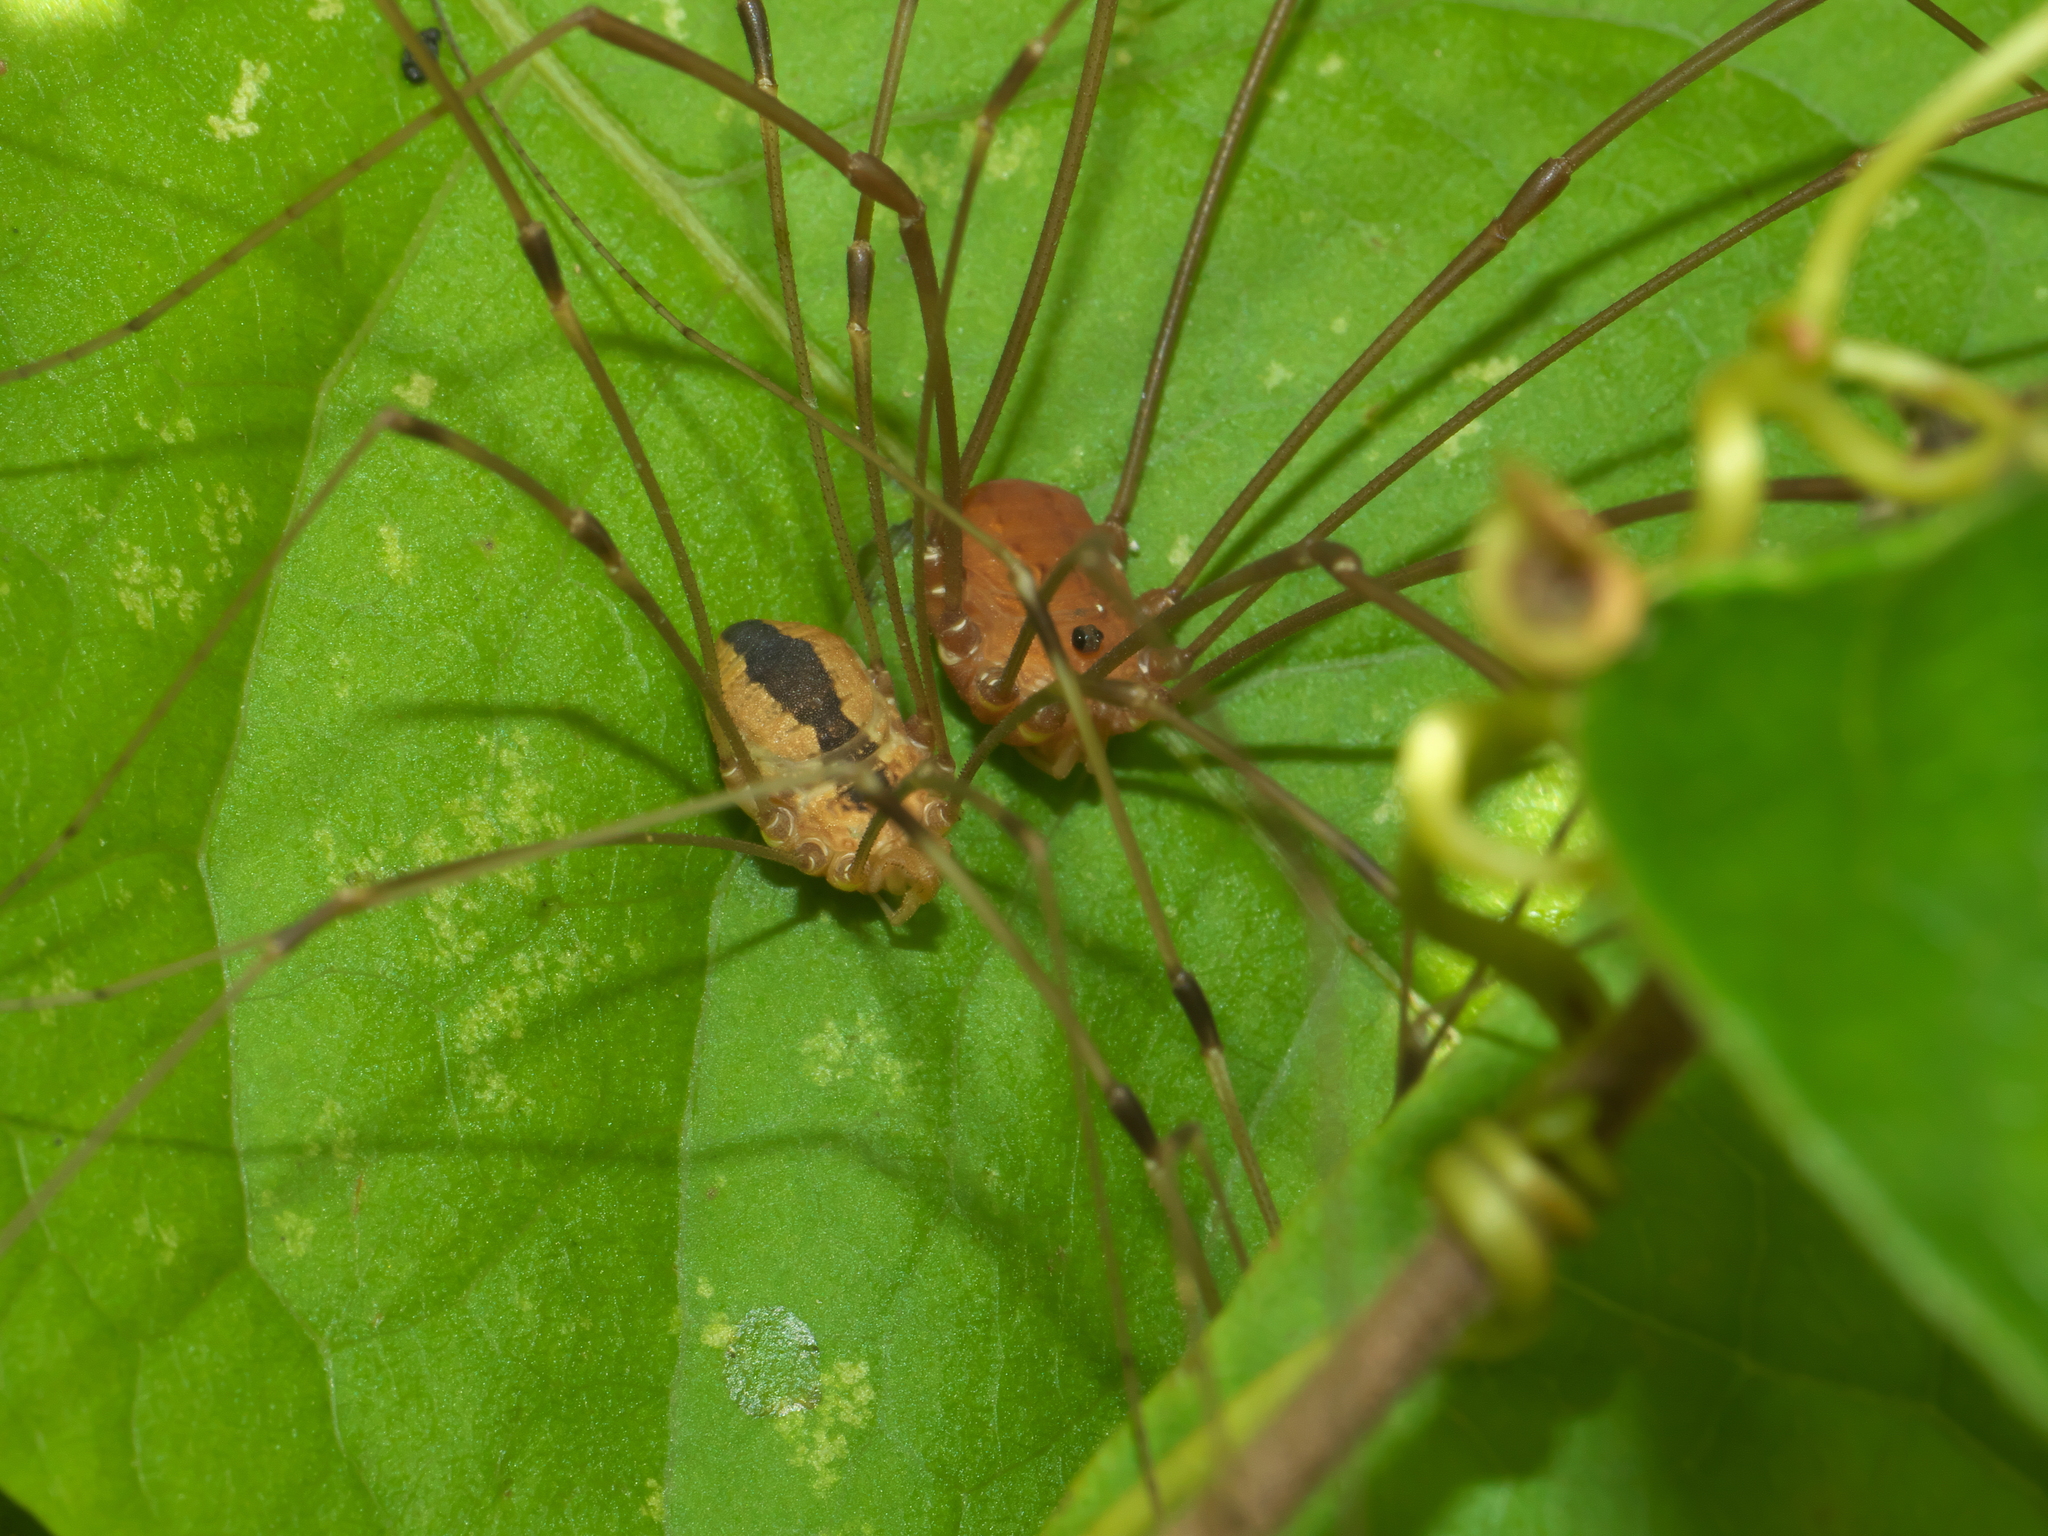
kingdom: Animalia
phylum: Arthropoda
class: Arachnida
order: Opiliones
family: Sclerosomatidae
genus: Leiobunum
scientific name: Leiobunum vittatum
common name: Eastern harvestman
